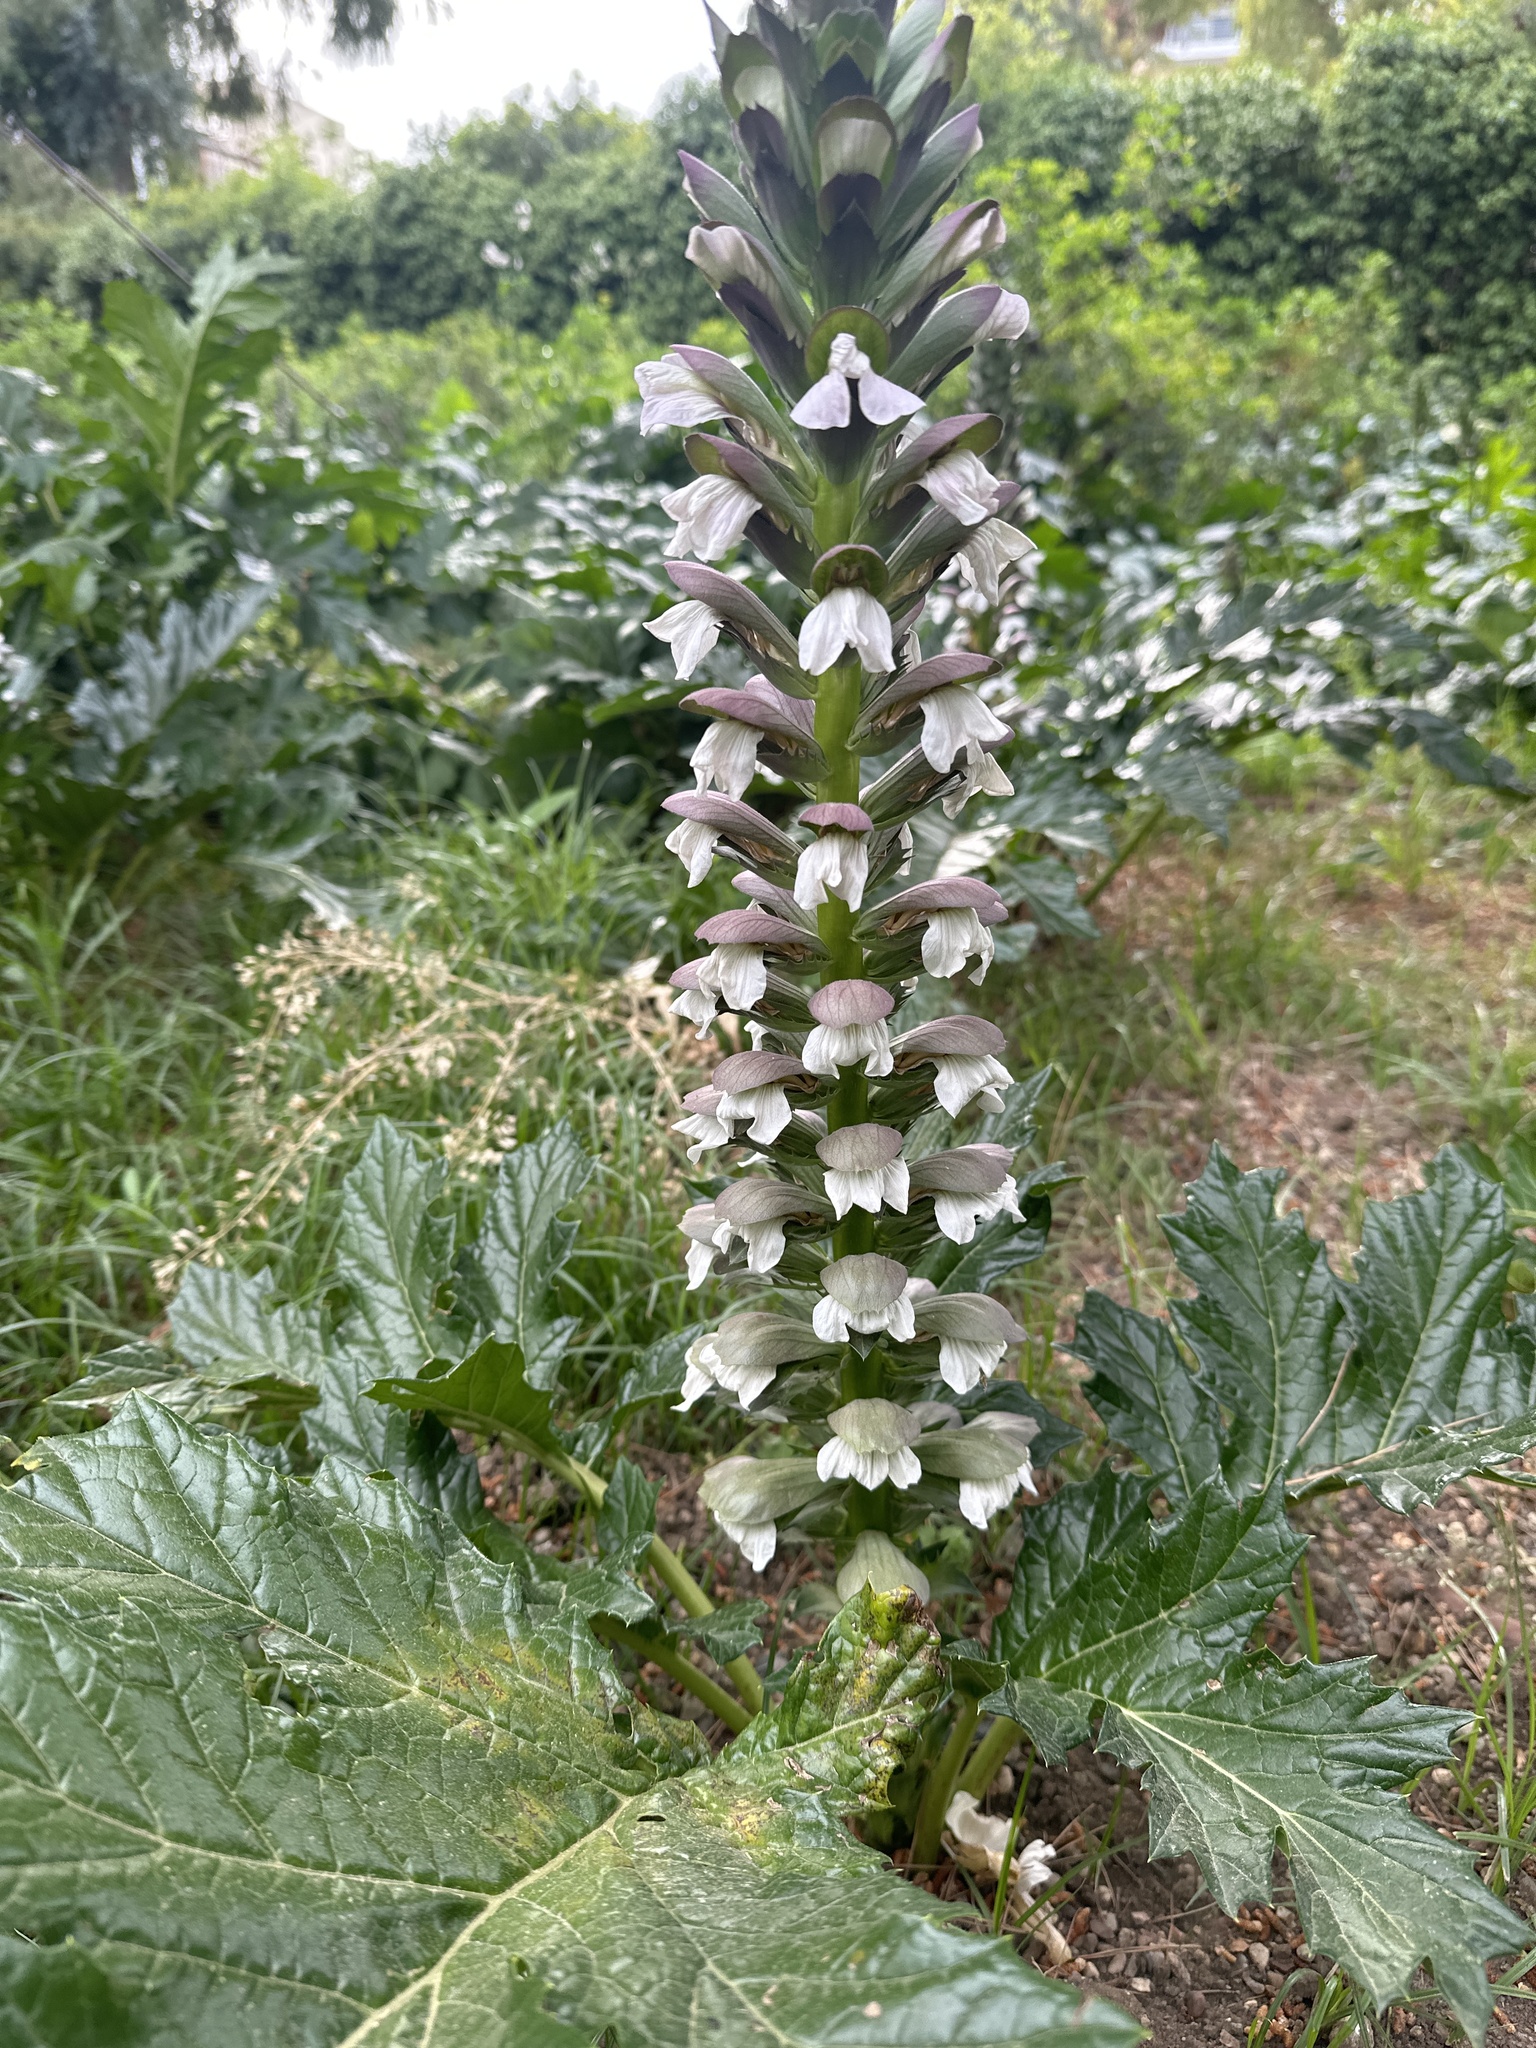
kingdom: Plantae
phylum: Tracheophyta
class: Magnoliopsida
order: Lamiales
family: Acanthaceae
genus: Acanthus
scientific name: Acanthus mollis
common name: Bear's-breech
